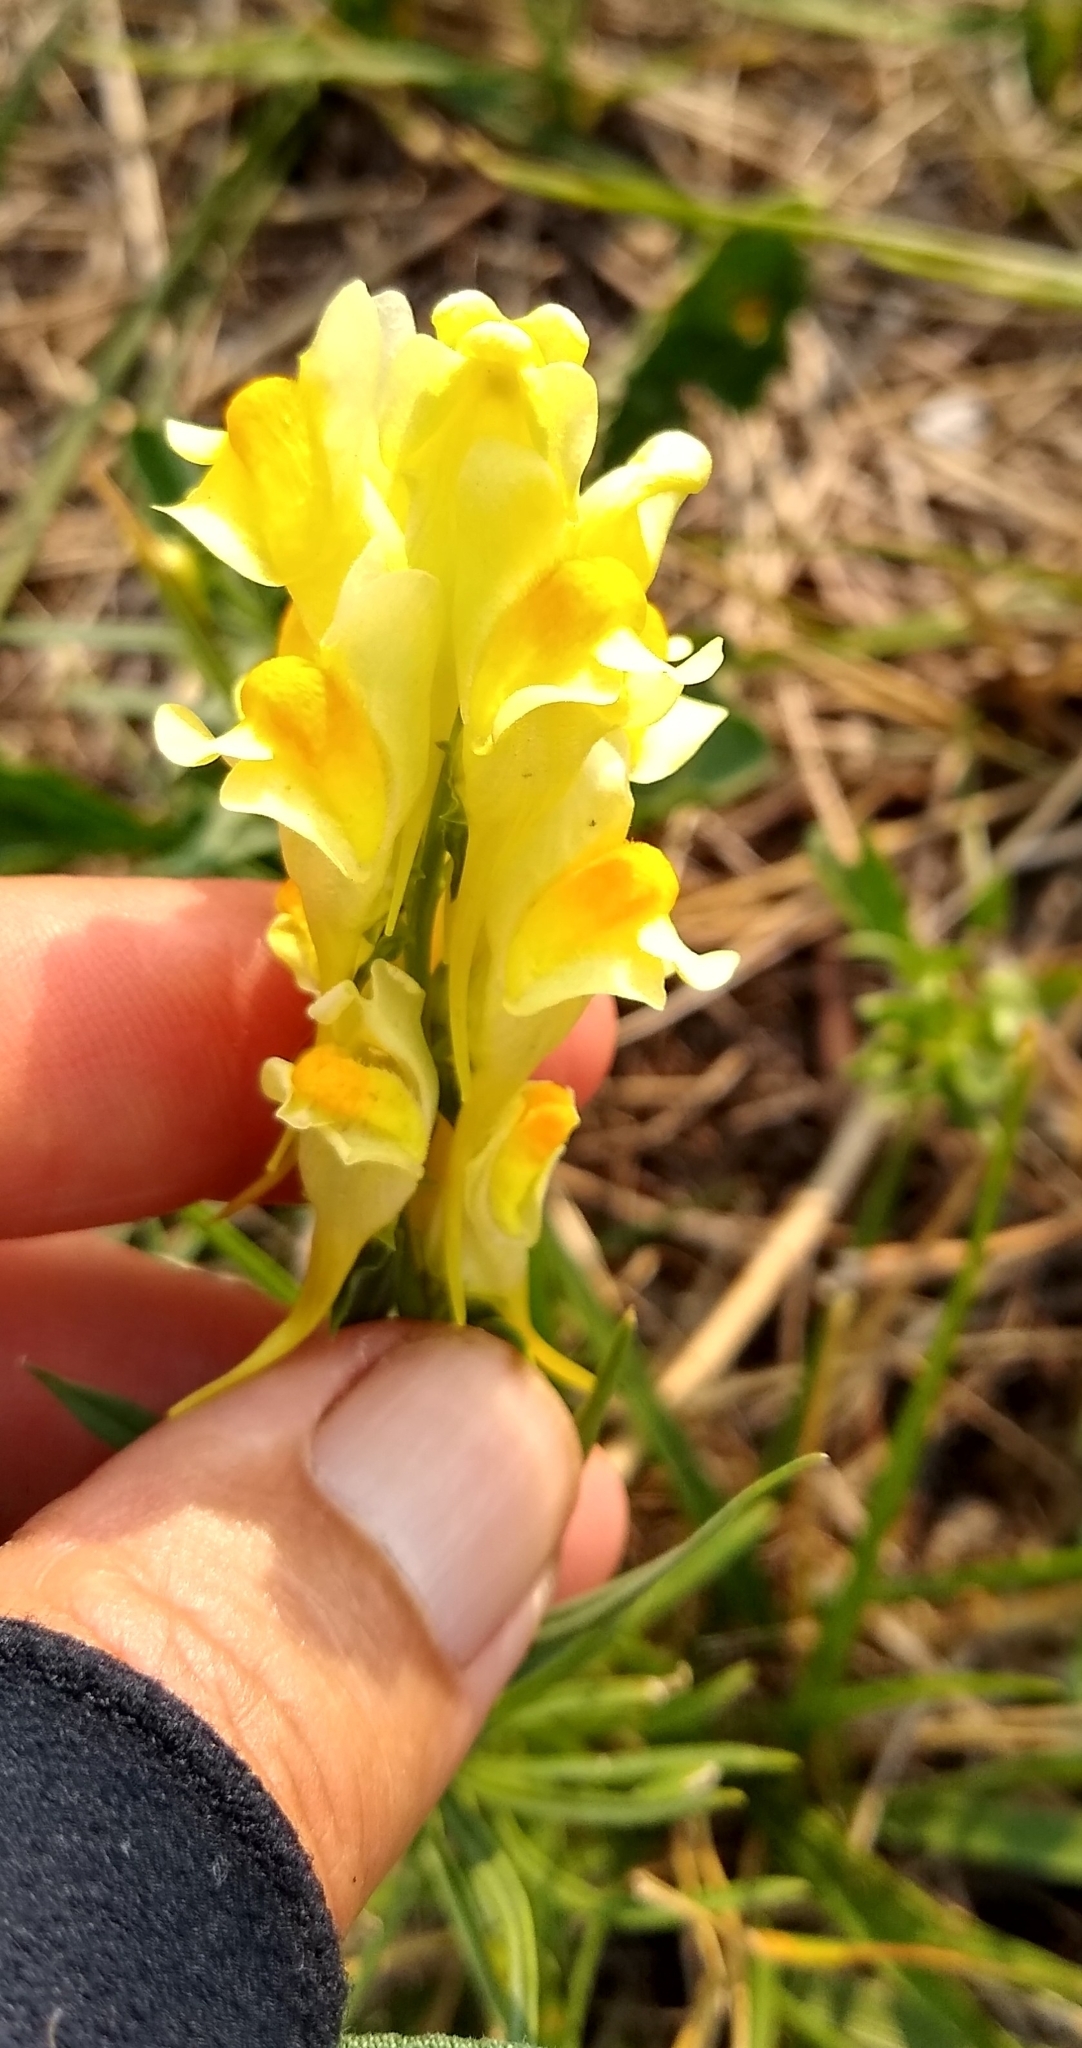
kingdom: Plantae
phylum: Tracheophyta
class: Magnoliopsida
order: Lamiales
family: Plantaginaceae
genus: Linaria
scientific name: Linaria vulgaris
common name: Butter and eggs
